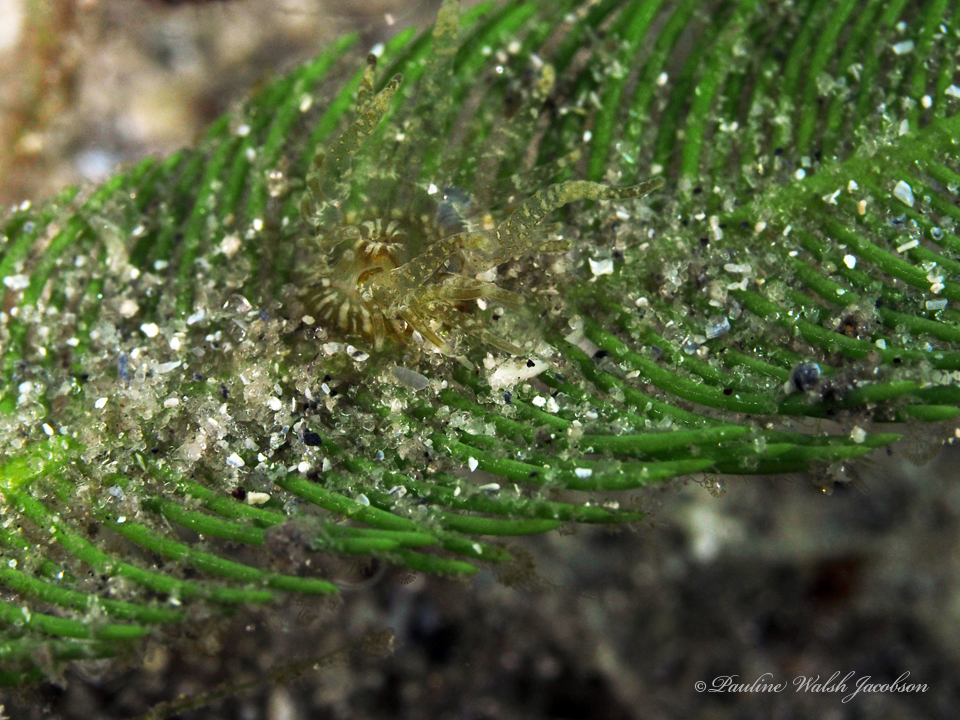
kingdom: Animalia
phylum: Cnidaria
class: Anthozoa
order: Actiniaria
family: Boloceroididae
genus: Bunodeopsis
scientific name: Bunodeopsis globulifera
